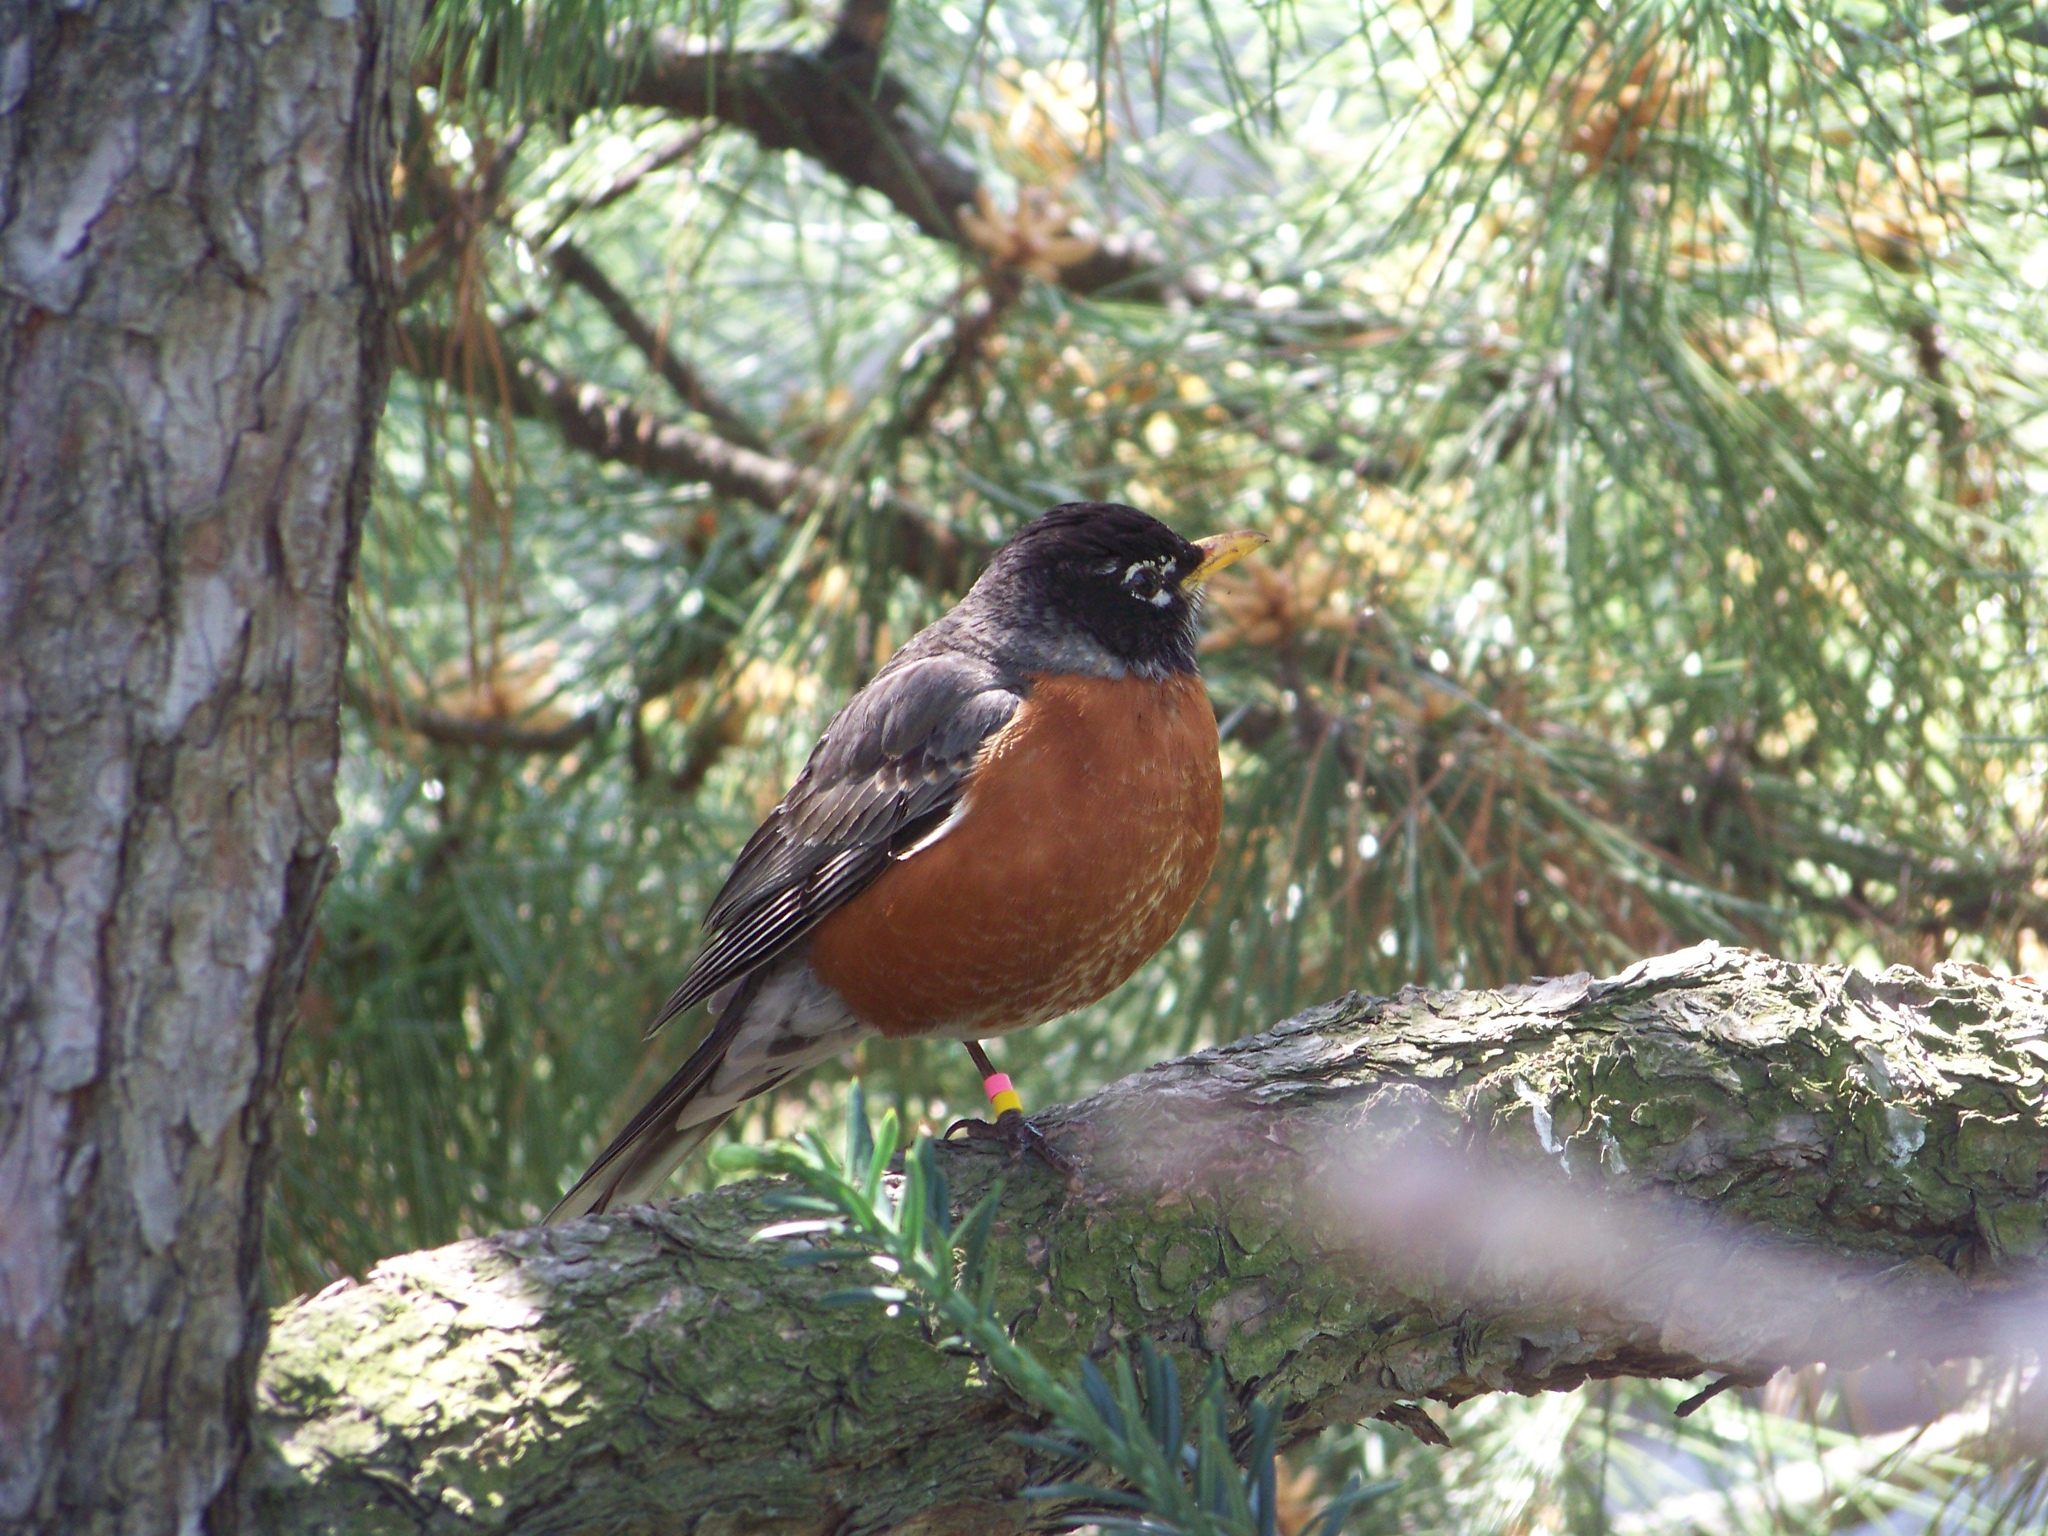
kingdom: Animalia
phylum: Chordata
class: Aves
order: Passeriformes
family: Turdidae
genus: Turdus
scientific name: Turdus migratorius
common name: American robin
